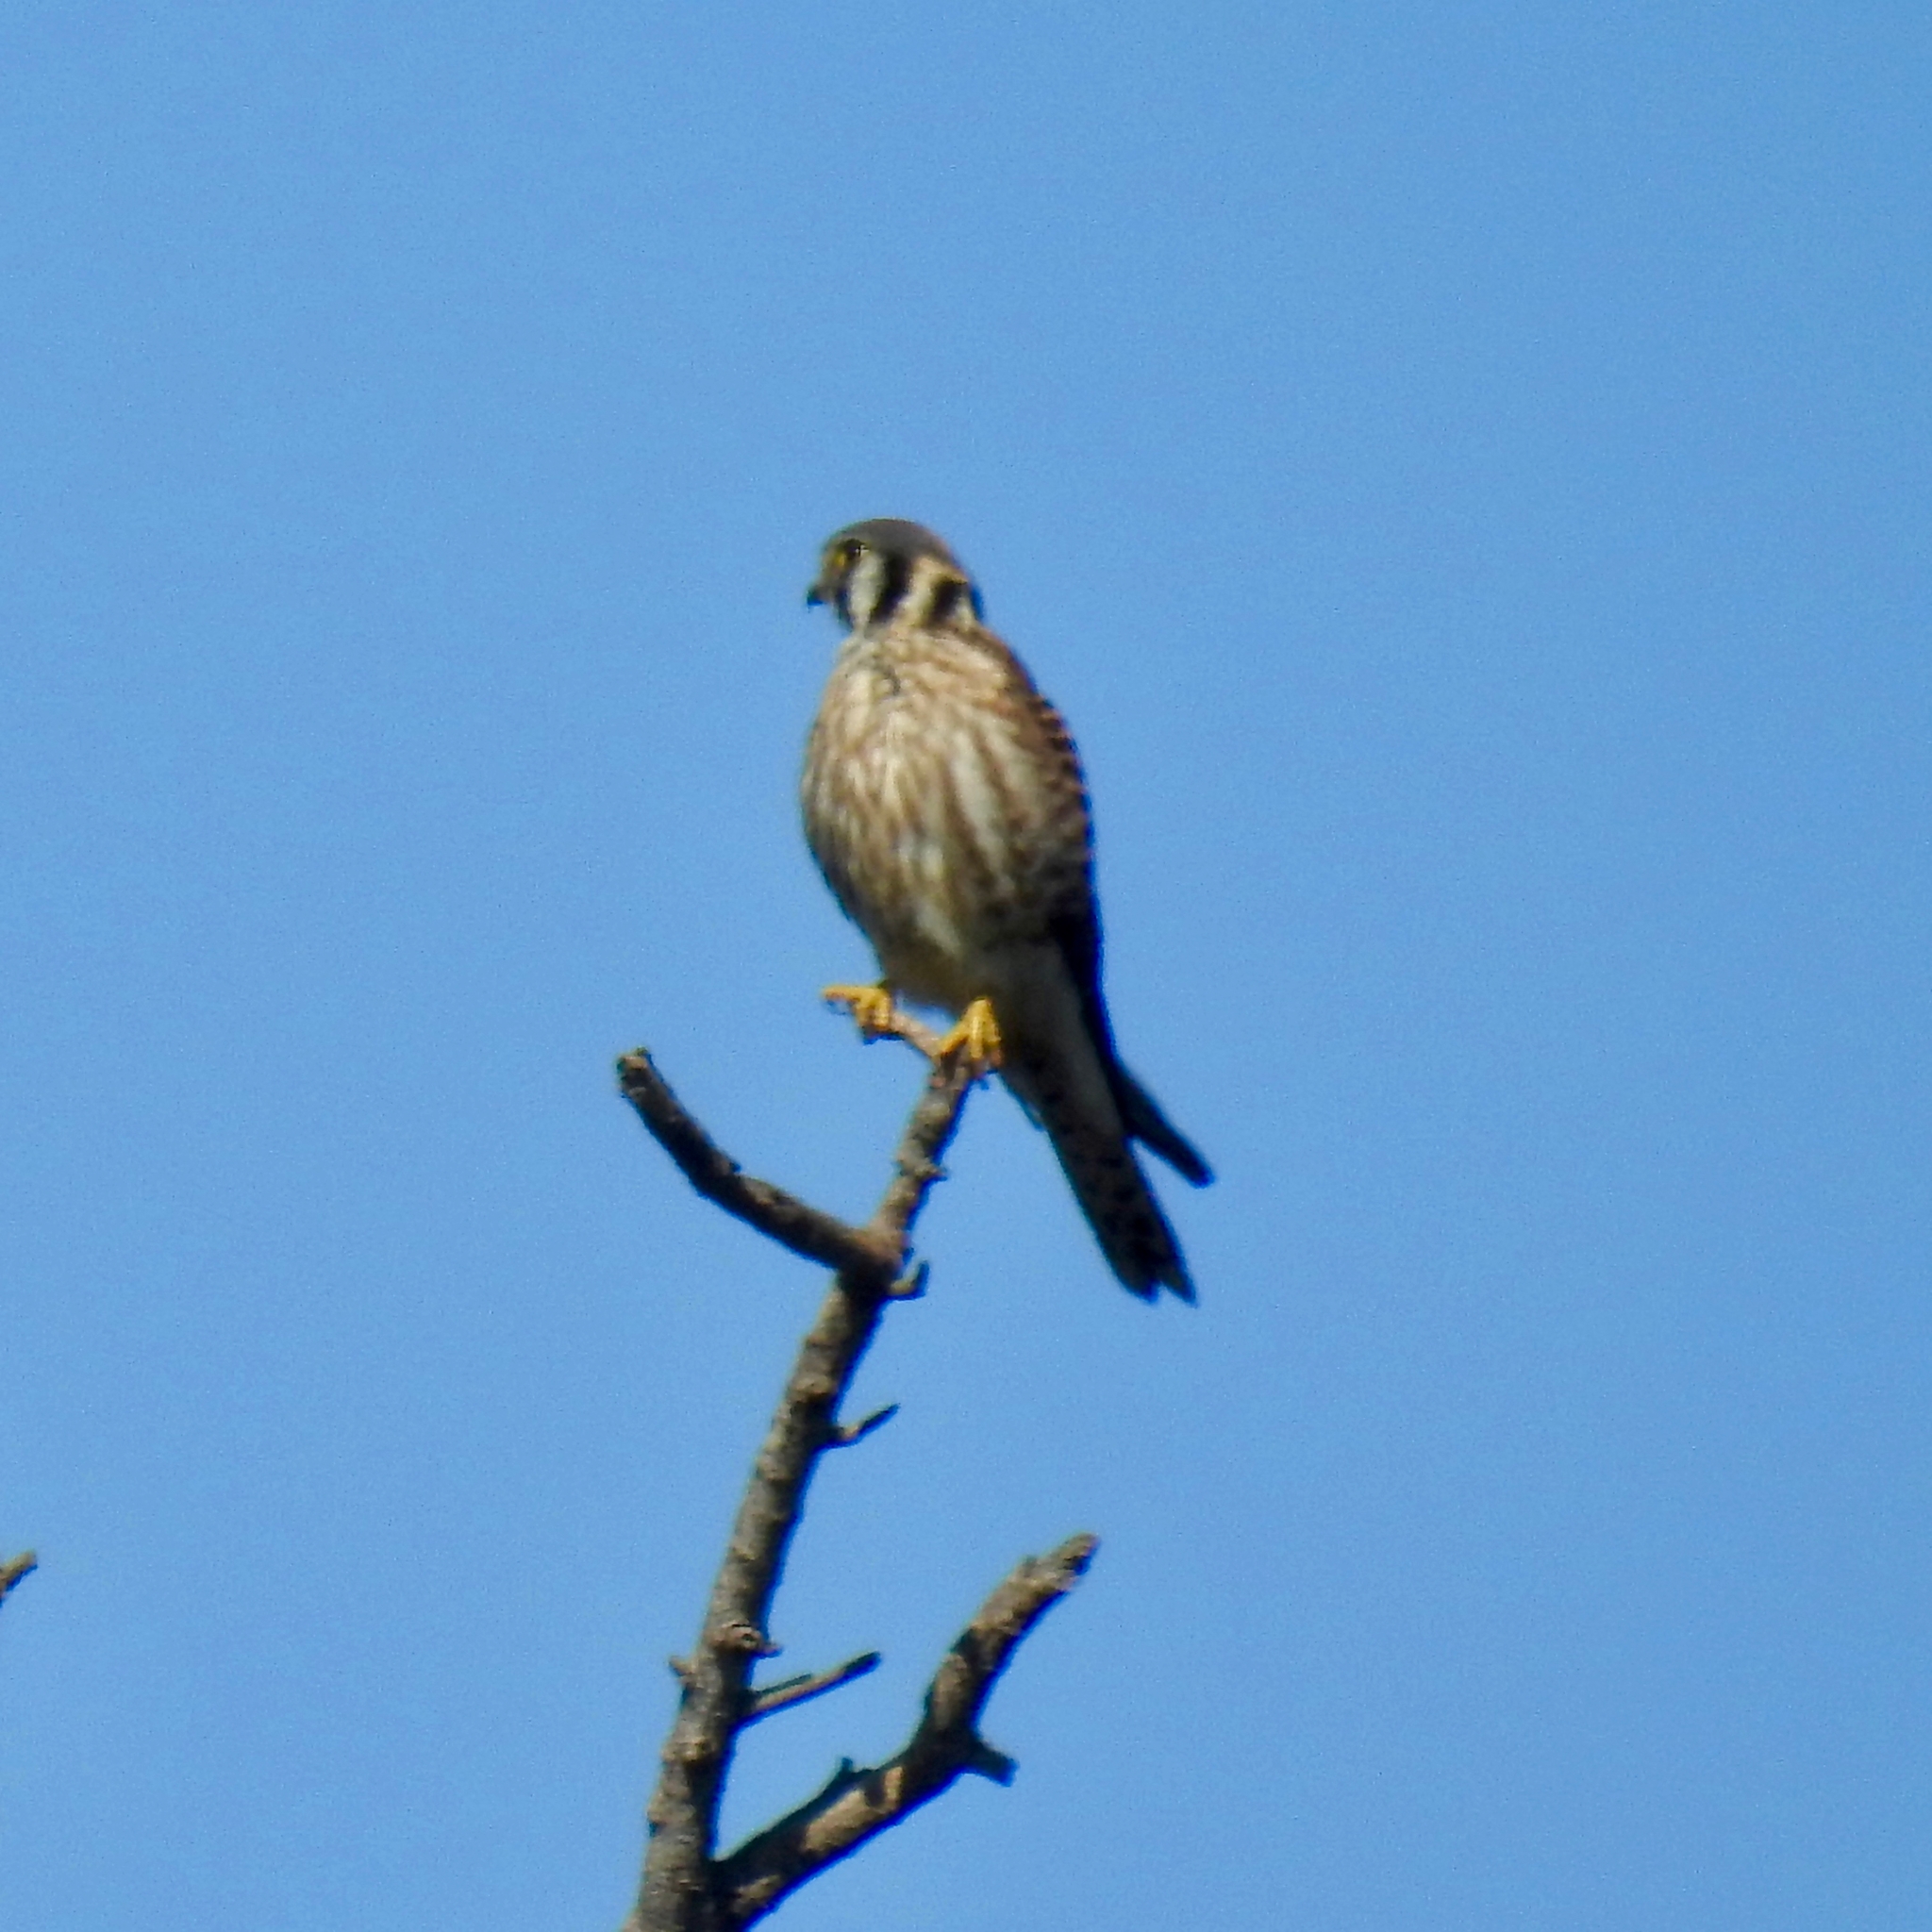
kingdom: Animalia
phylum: Chordata
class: Aves
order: Falconiformes
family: Falconidae
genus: Falco
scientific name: Falco sparverius
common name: American kestrel
